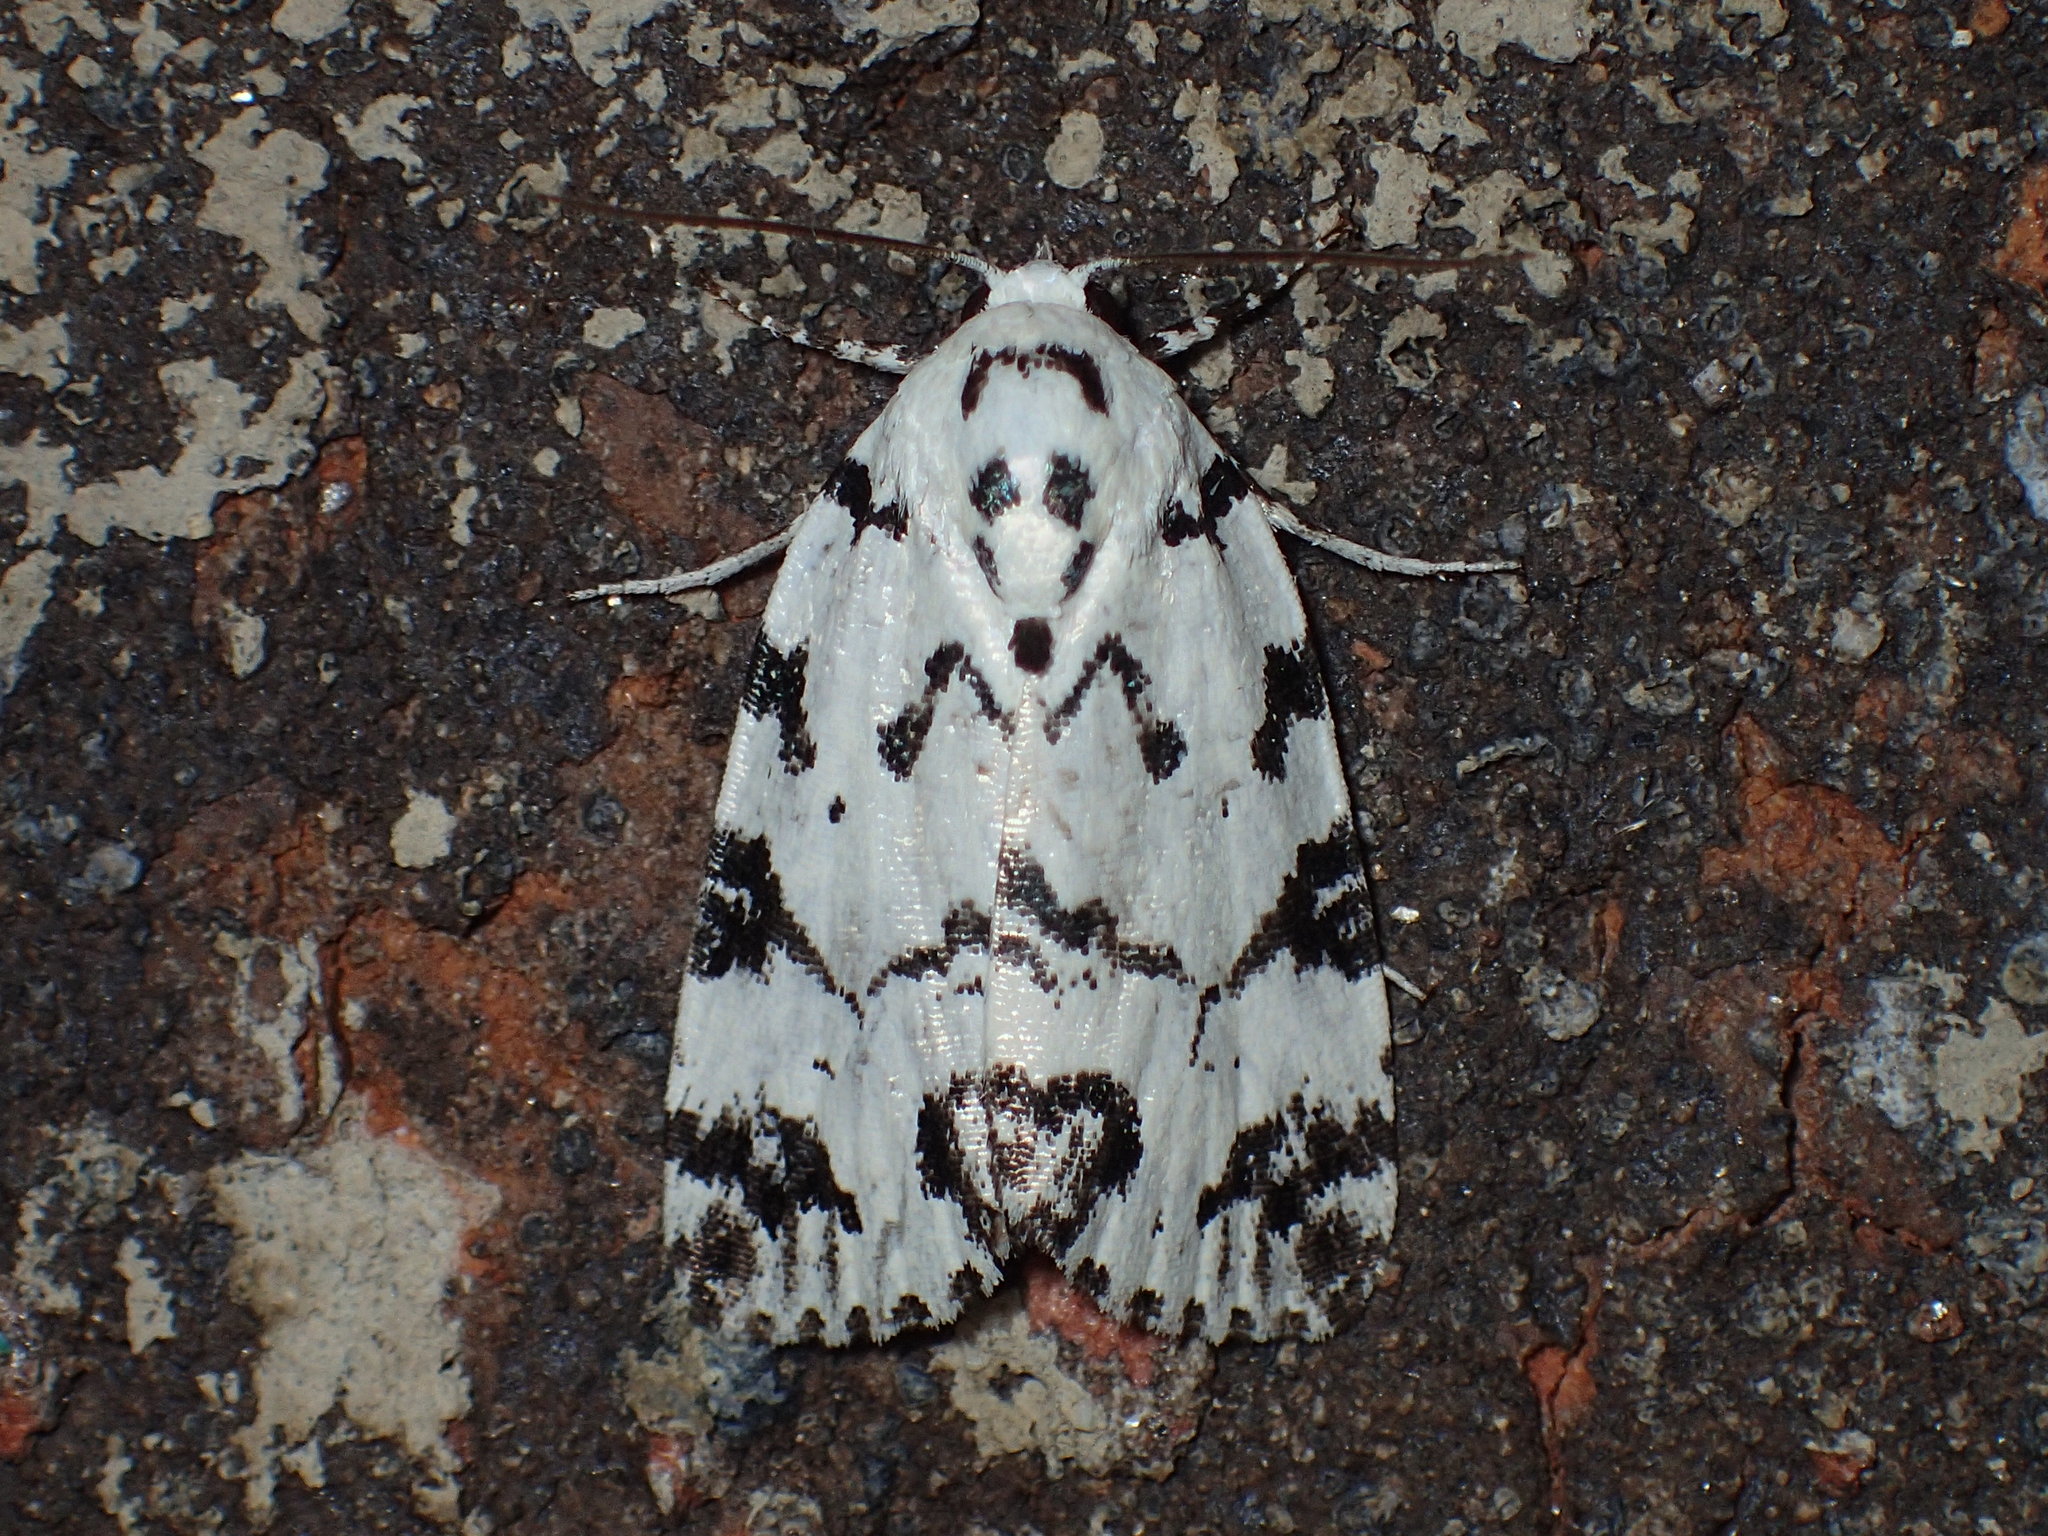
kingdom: Animalia
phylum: Arthropoda
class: Insecta
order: Lepidoptera
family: Noctuidae
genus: Polygrammate
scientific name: Polygrammate hebraeicum
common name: Hebrew moth
